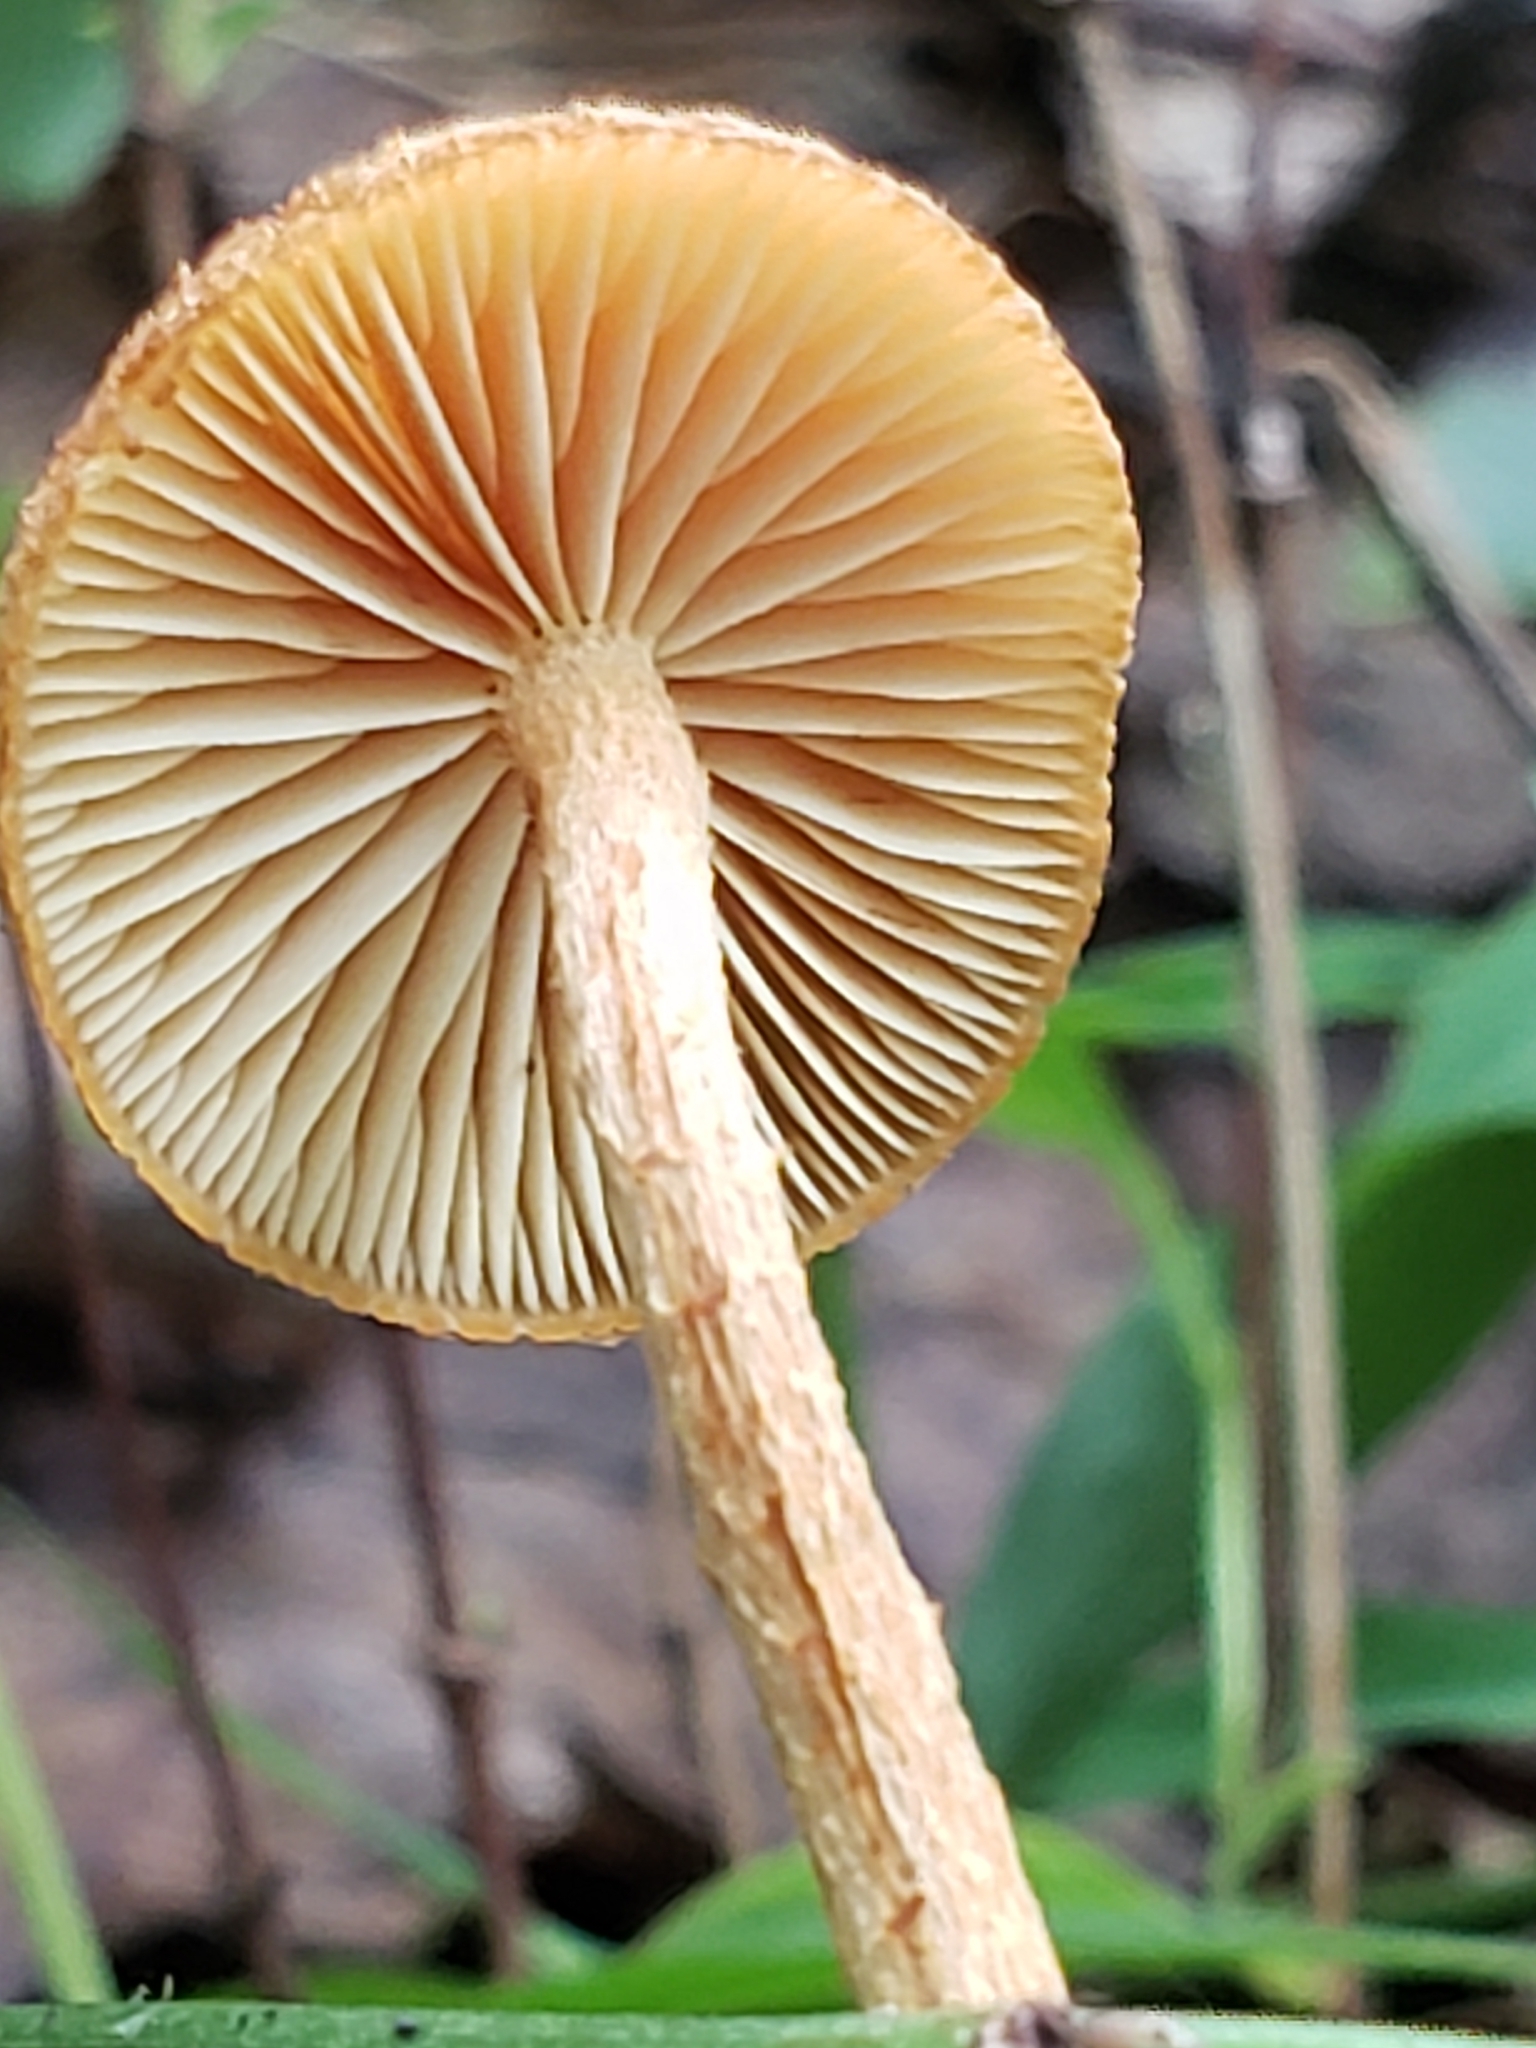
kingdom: Fungi
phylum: Basidiomycota
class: Agaricomycetes
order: Agaricales
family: Physalacriaceae
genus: Cyptotrama
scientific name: Cyptotrama asprata
